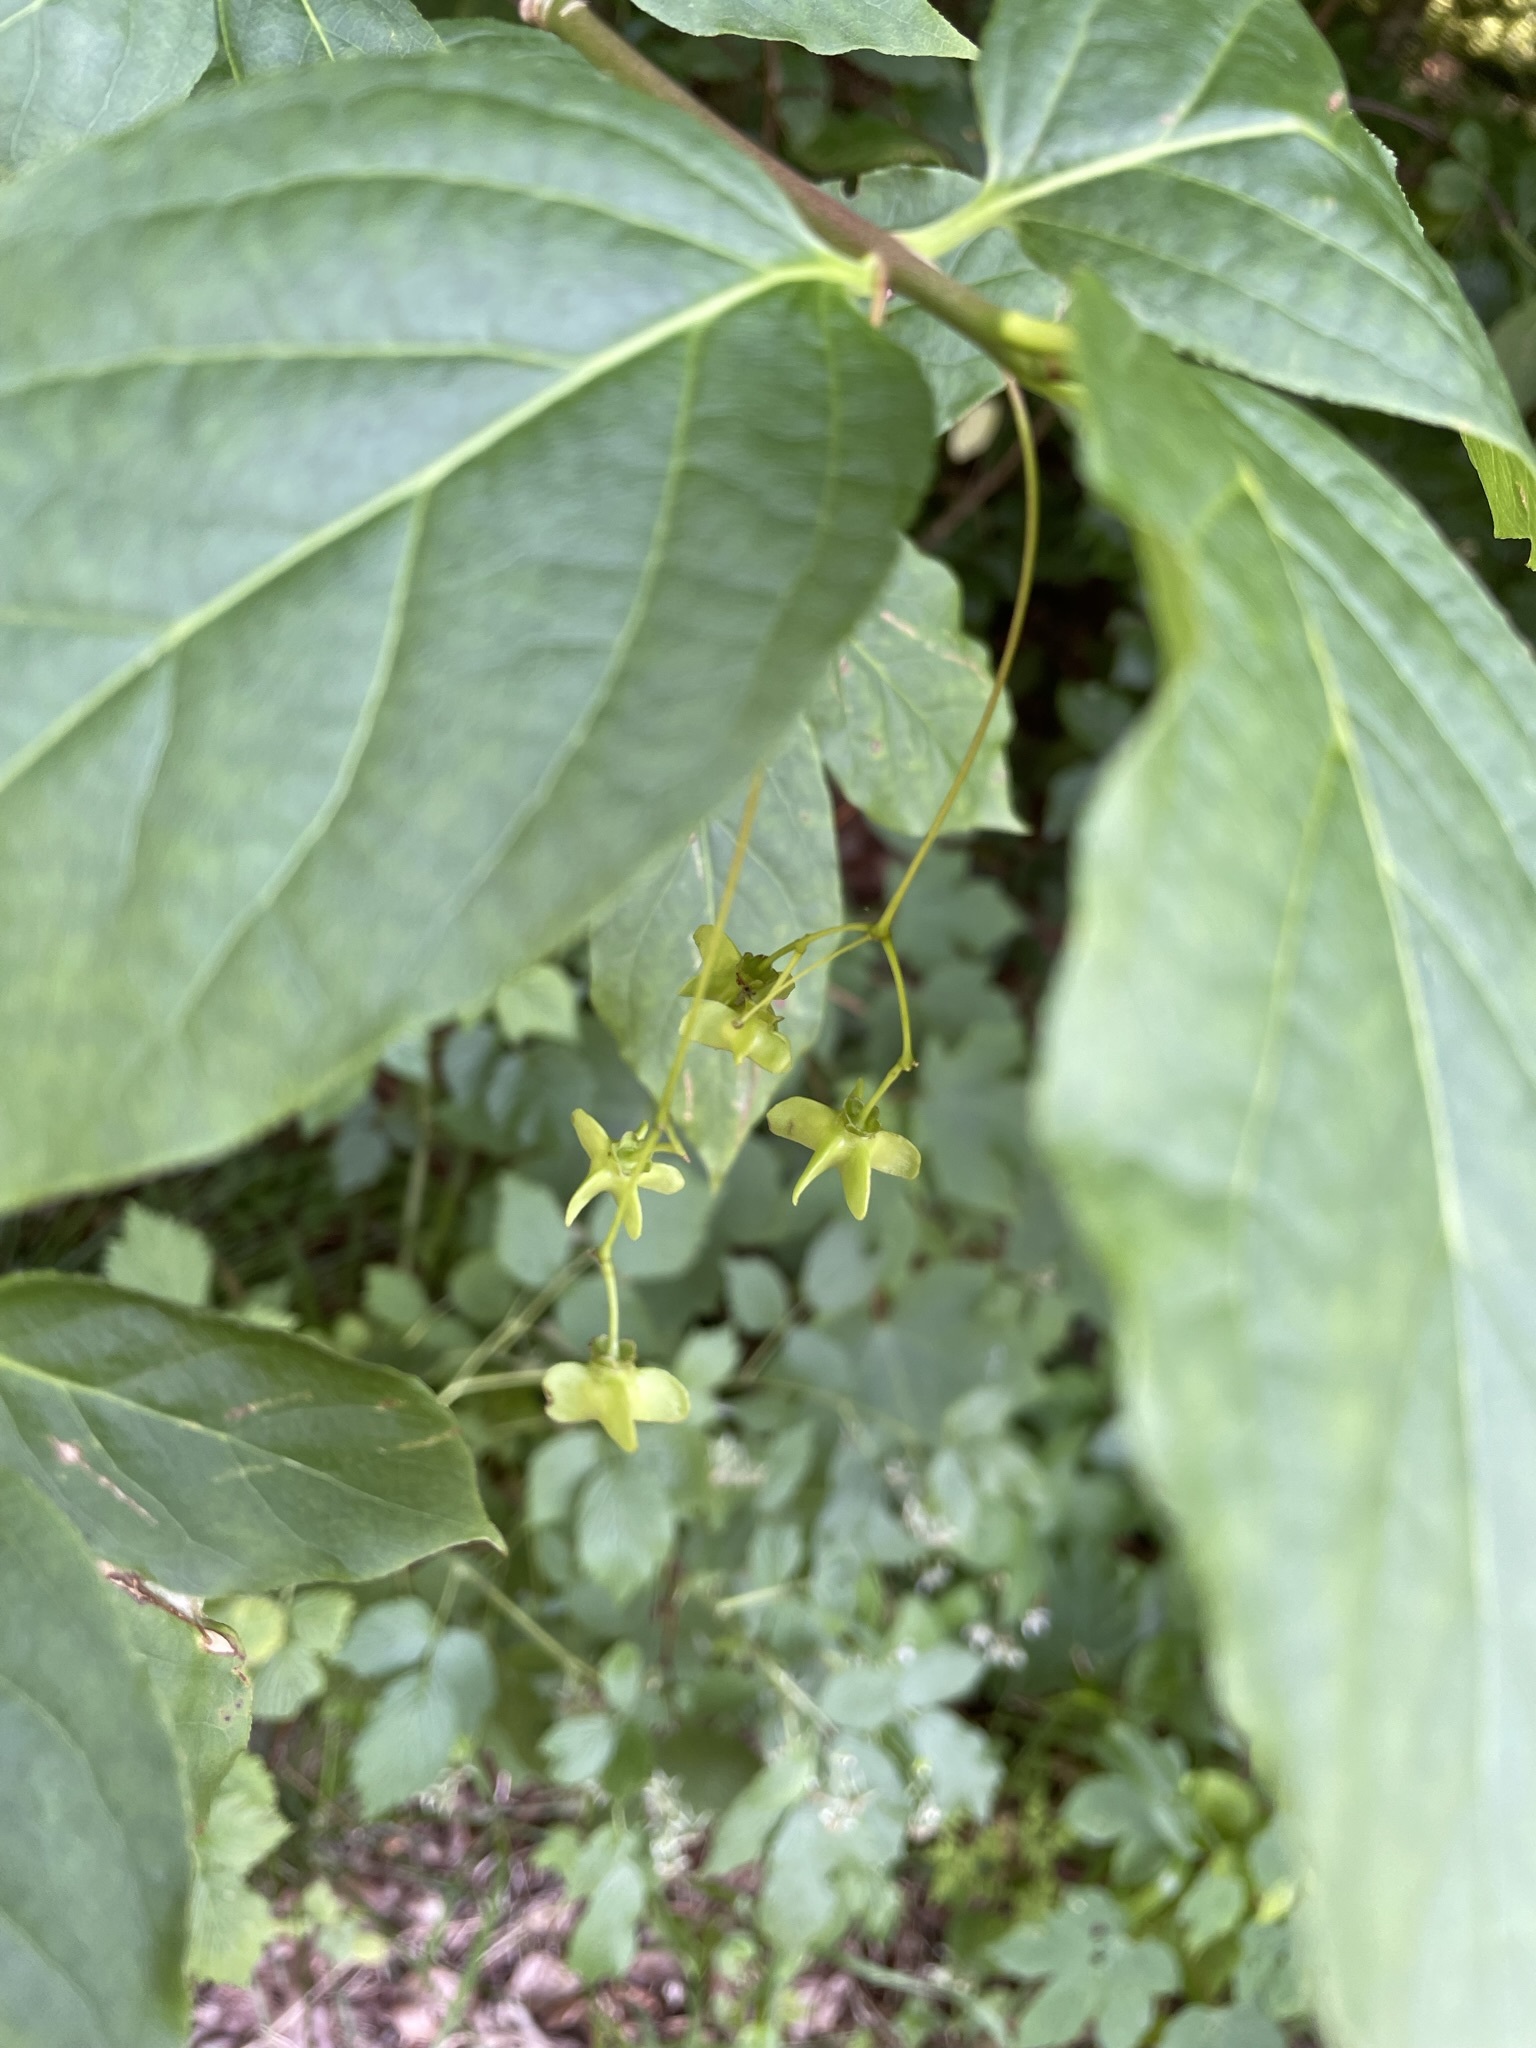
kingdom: Plantae
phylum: Tracheophyta
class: Magnoliopsida
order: Celastrales
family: Celastraceae
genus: Euonymus
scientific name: Euonymus latifolius
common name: Large-leaved spindle
